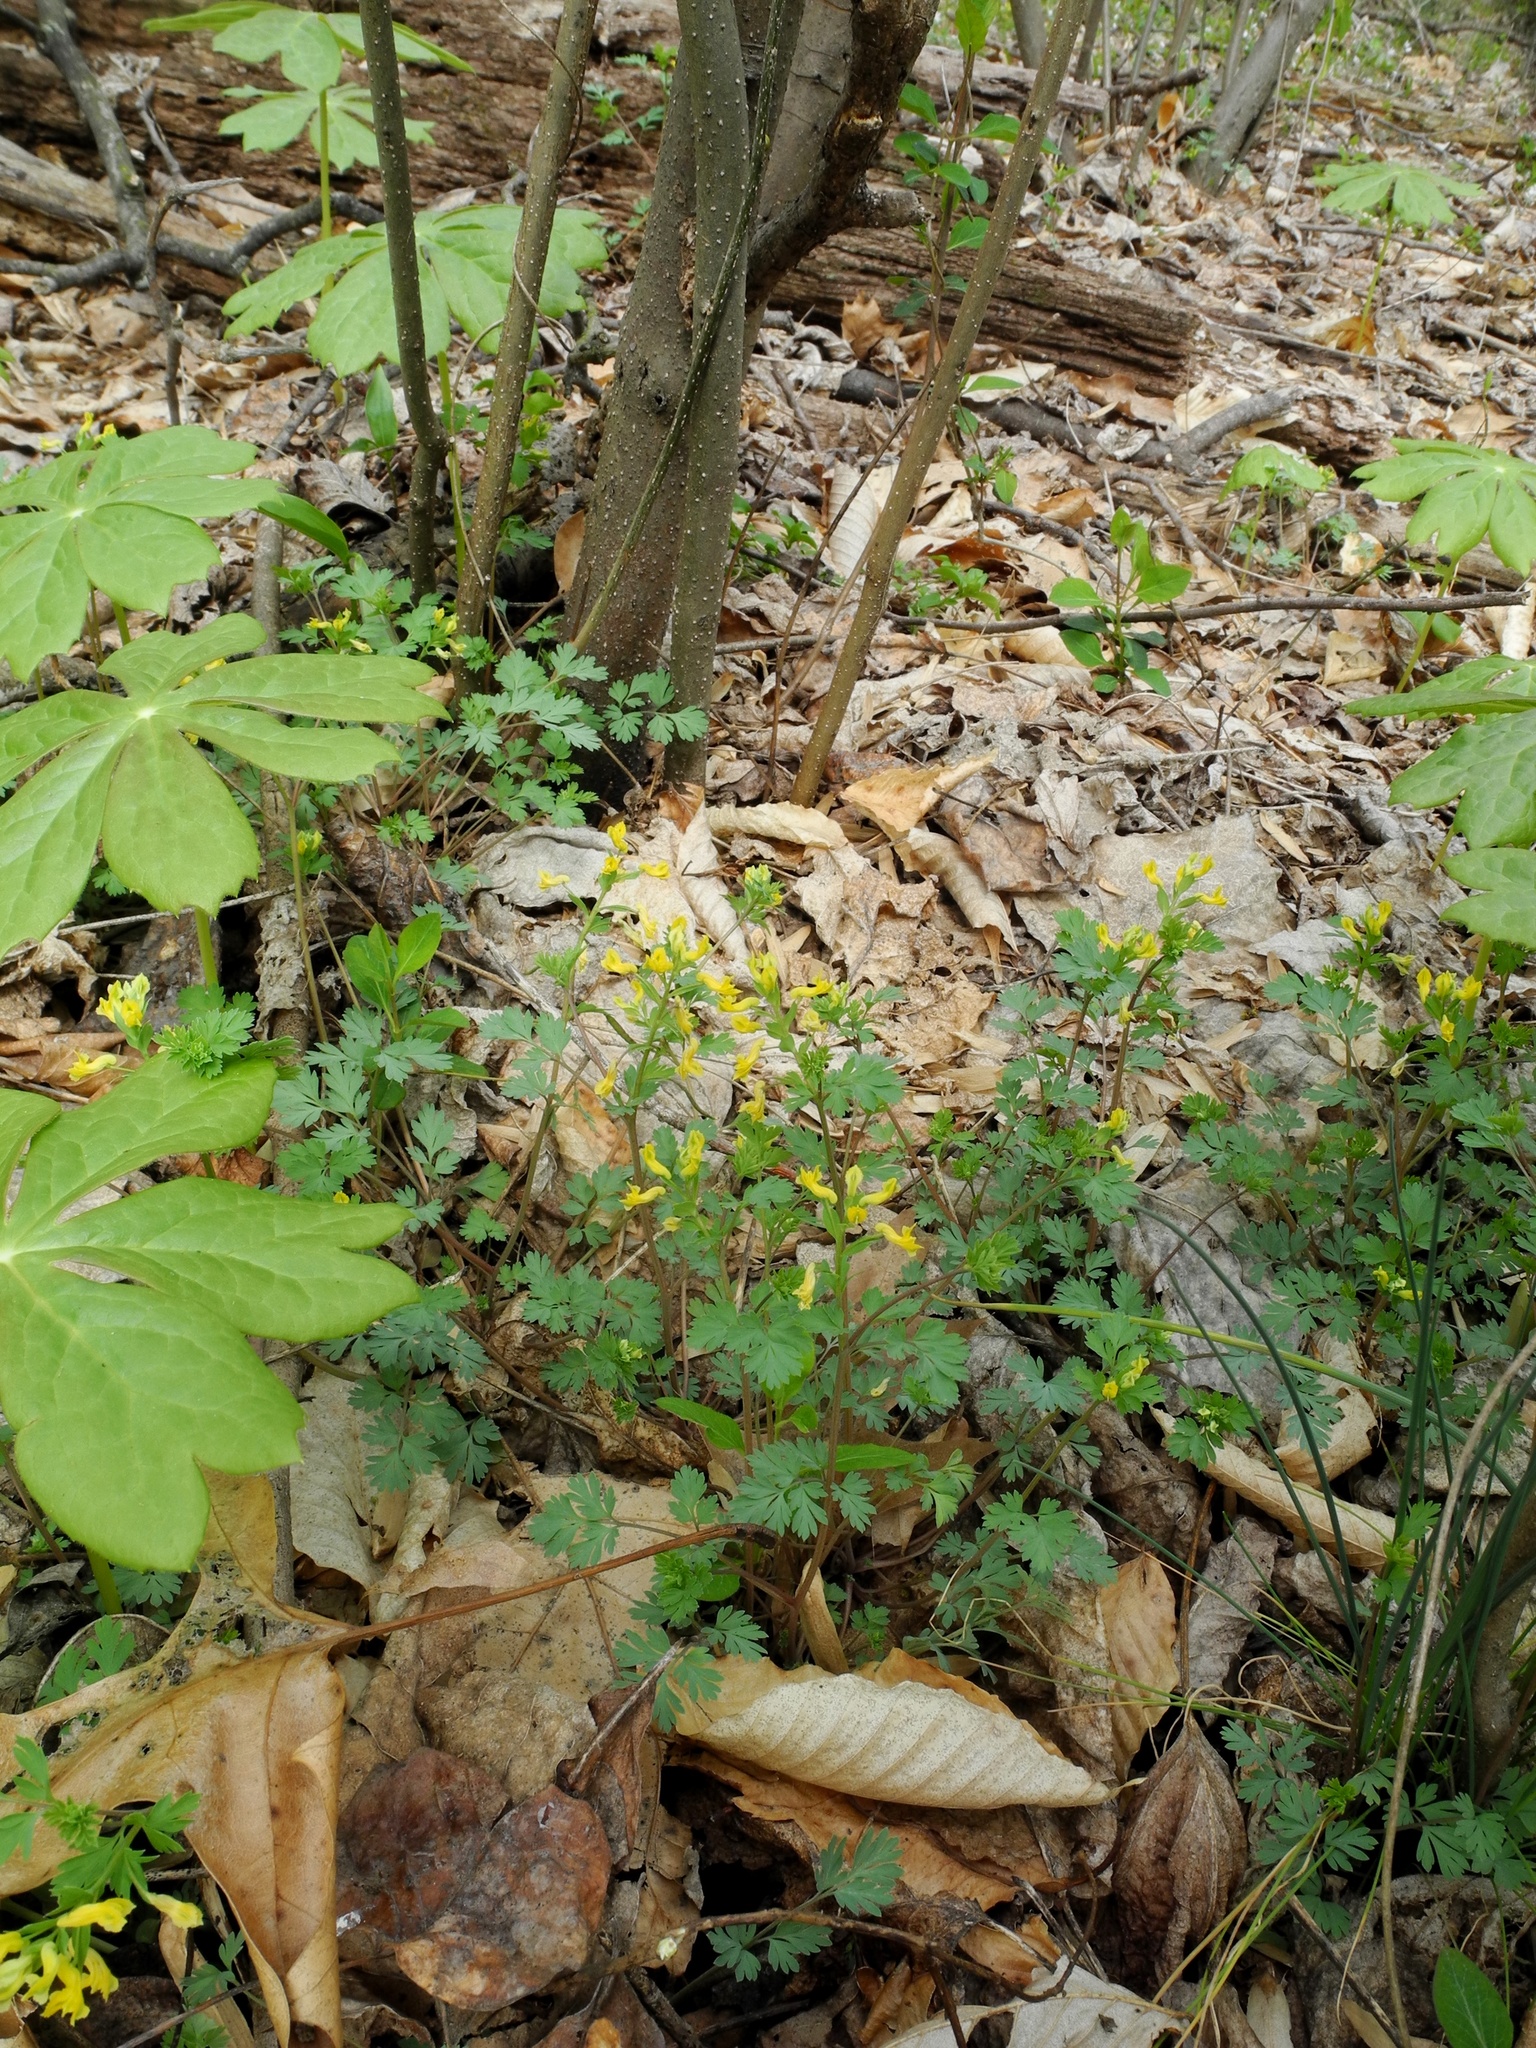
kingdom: Plantae
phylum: Tracheophyta
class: Magnoliopsida
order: Ranunculales
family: Papaveraceae
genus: Corydalis
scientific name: Corydalis flavula
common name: Yellow corydalis
